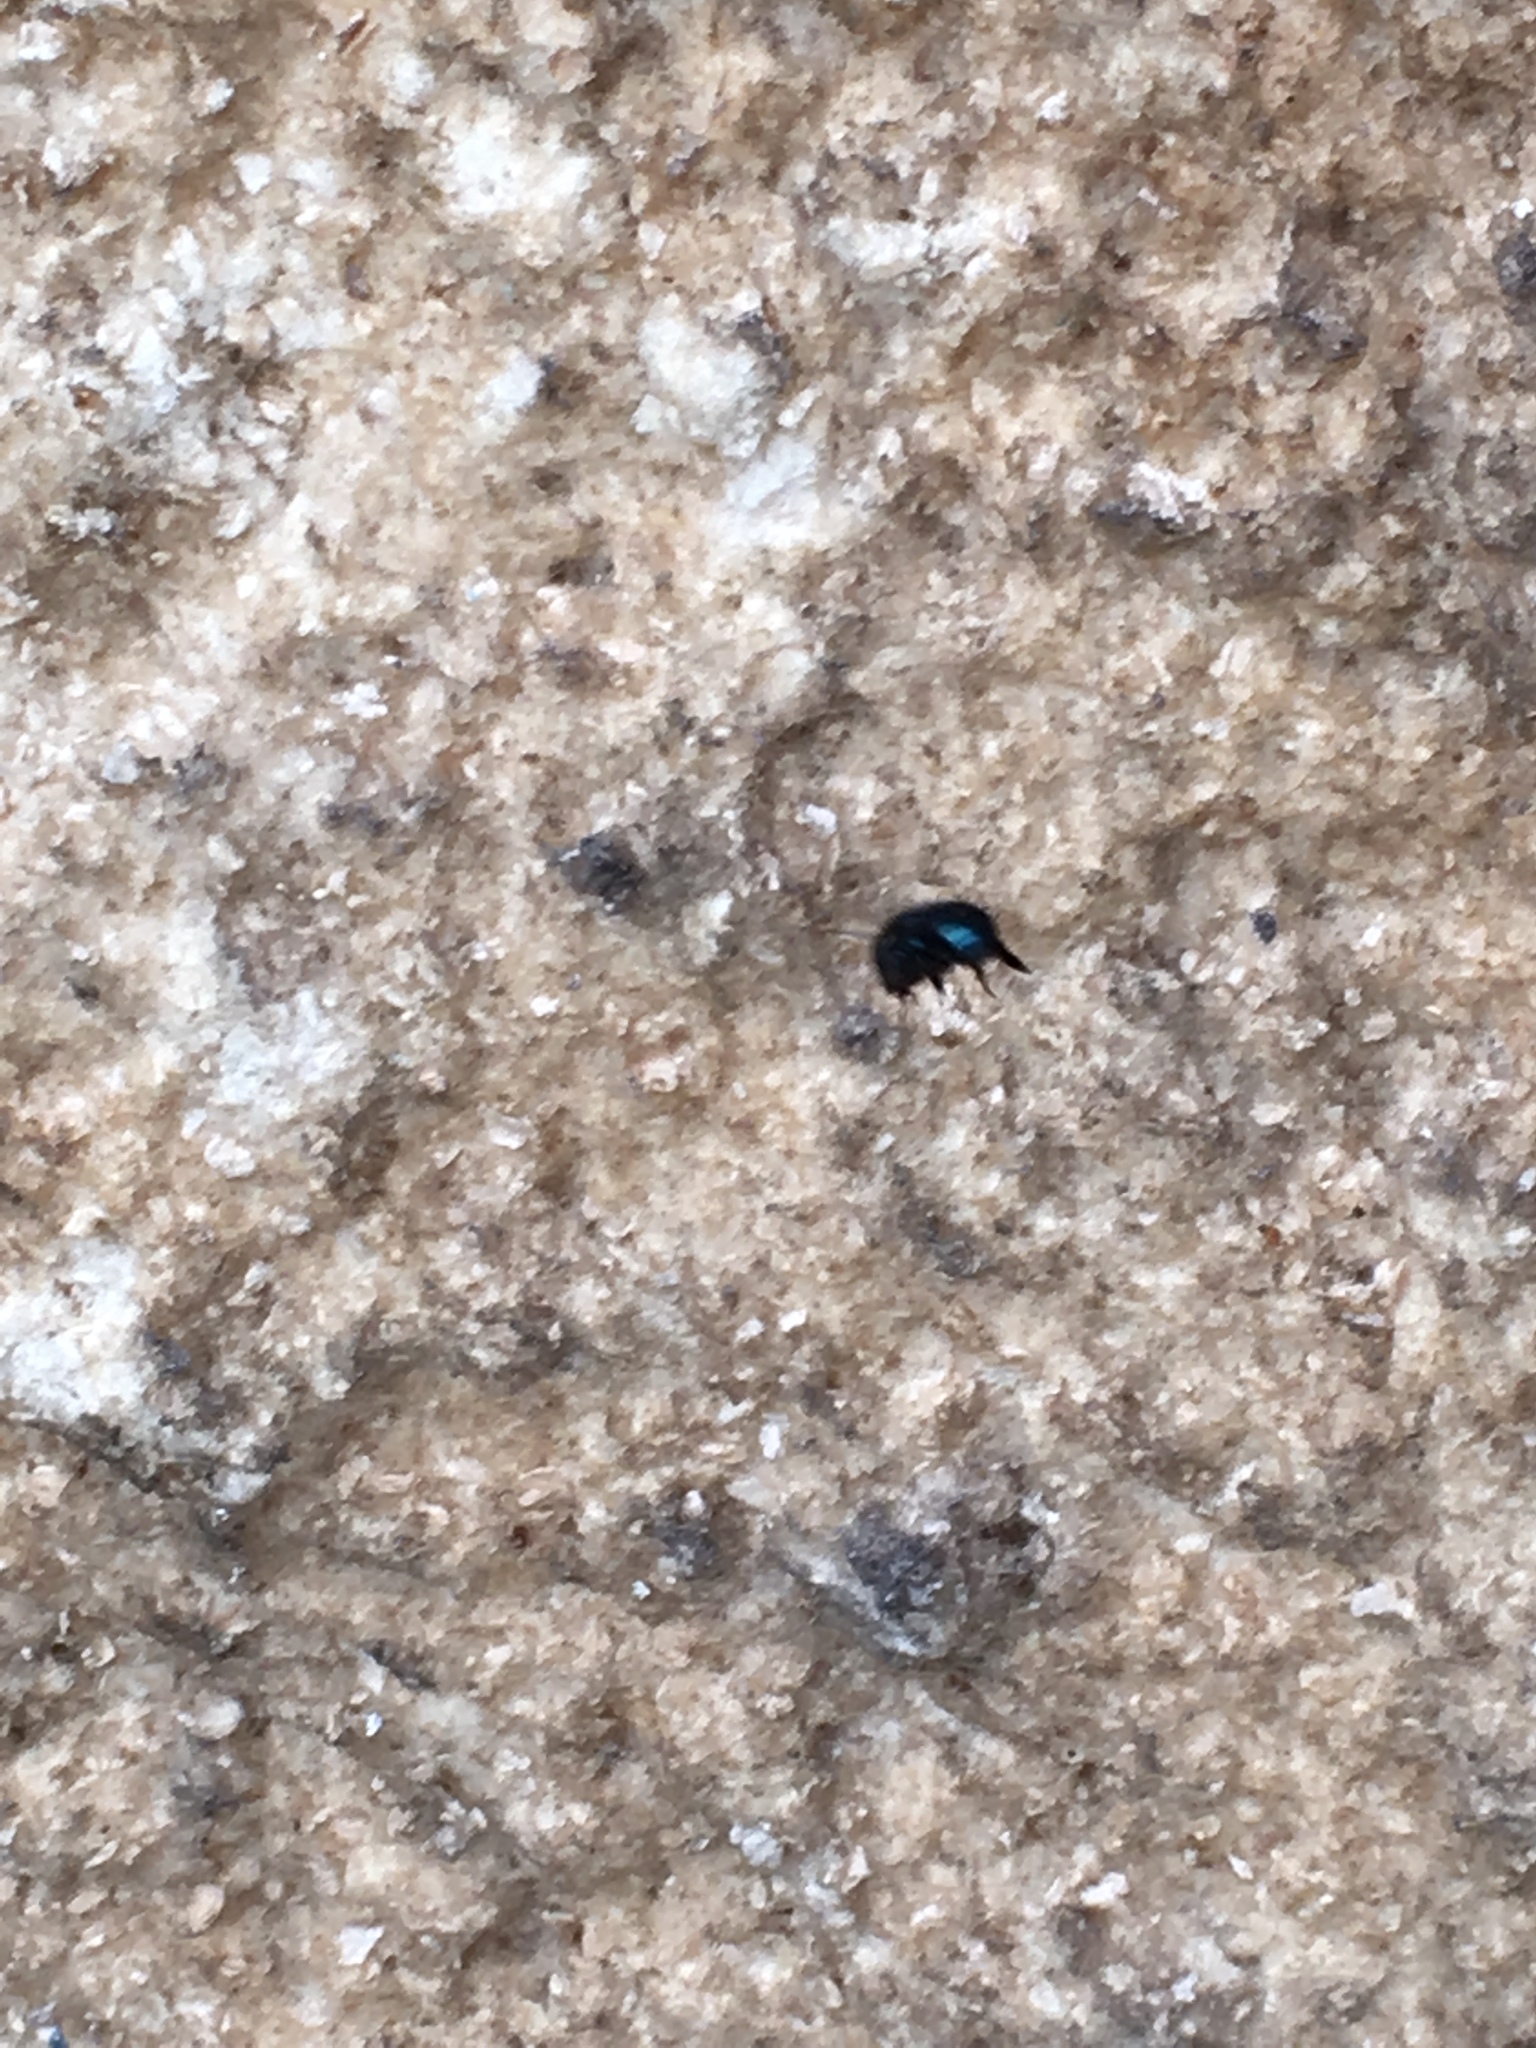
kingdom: Animalia
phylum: Arthropoda
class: Insecta
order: Hymenoptera
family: Megachilidae
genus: Osmia
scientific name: Osmia ribifloris
